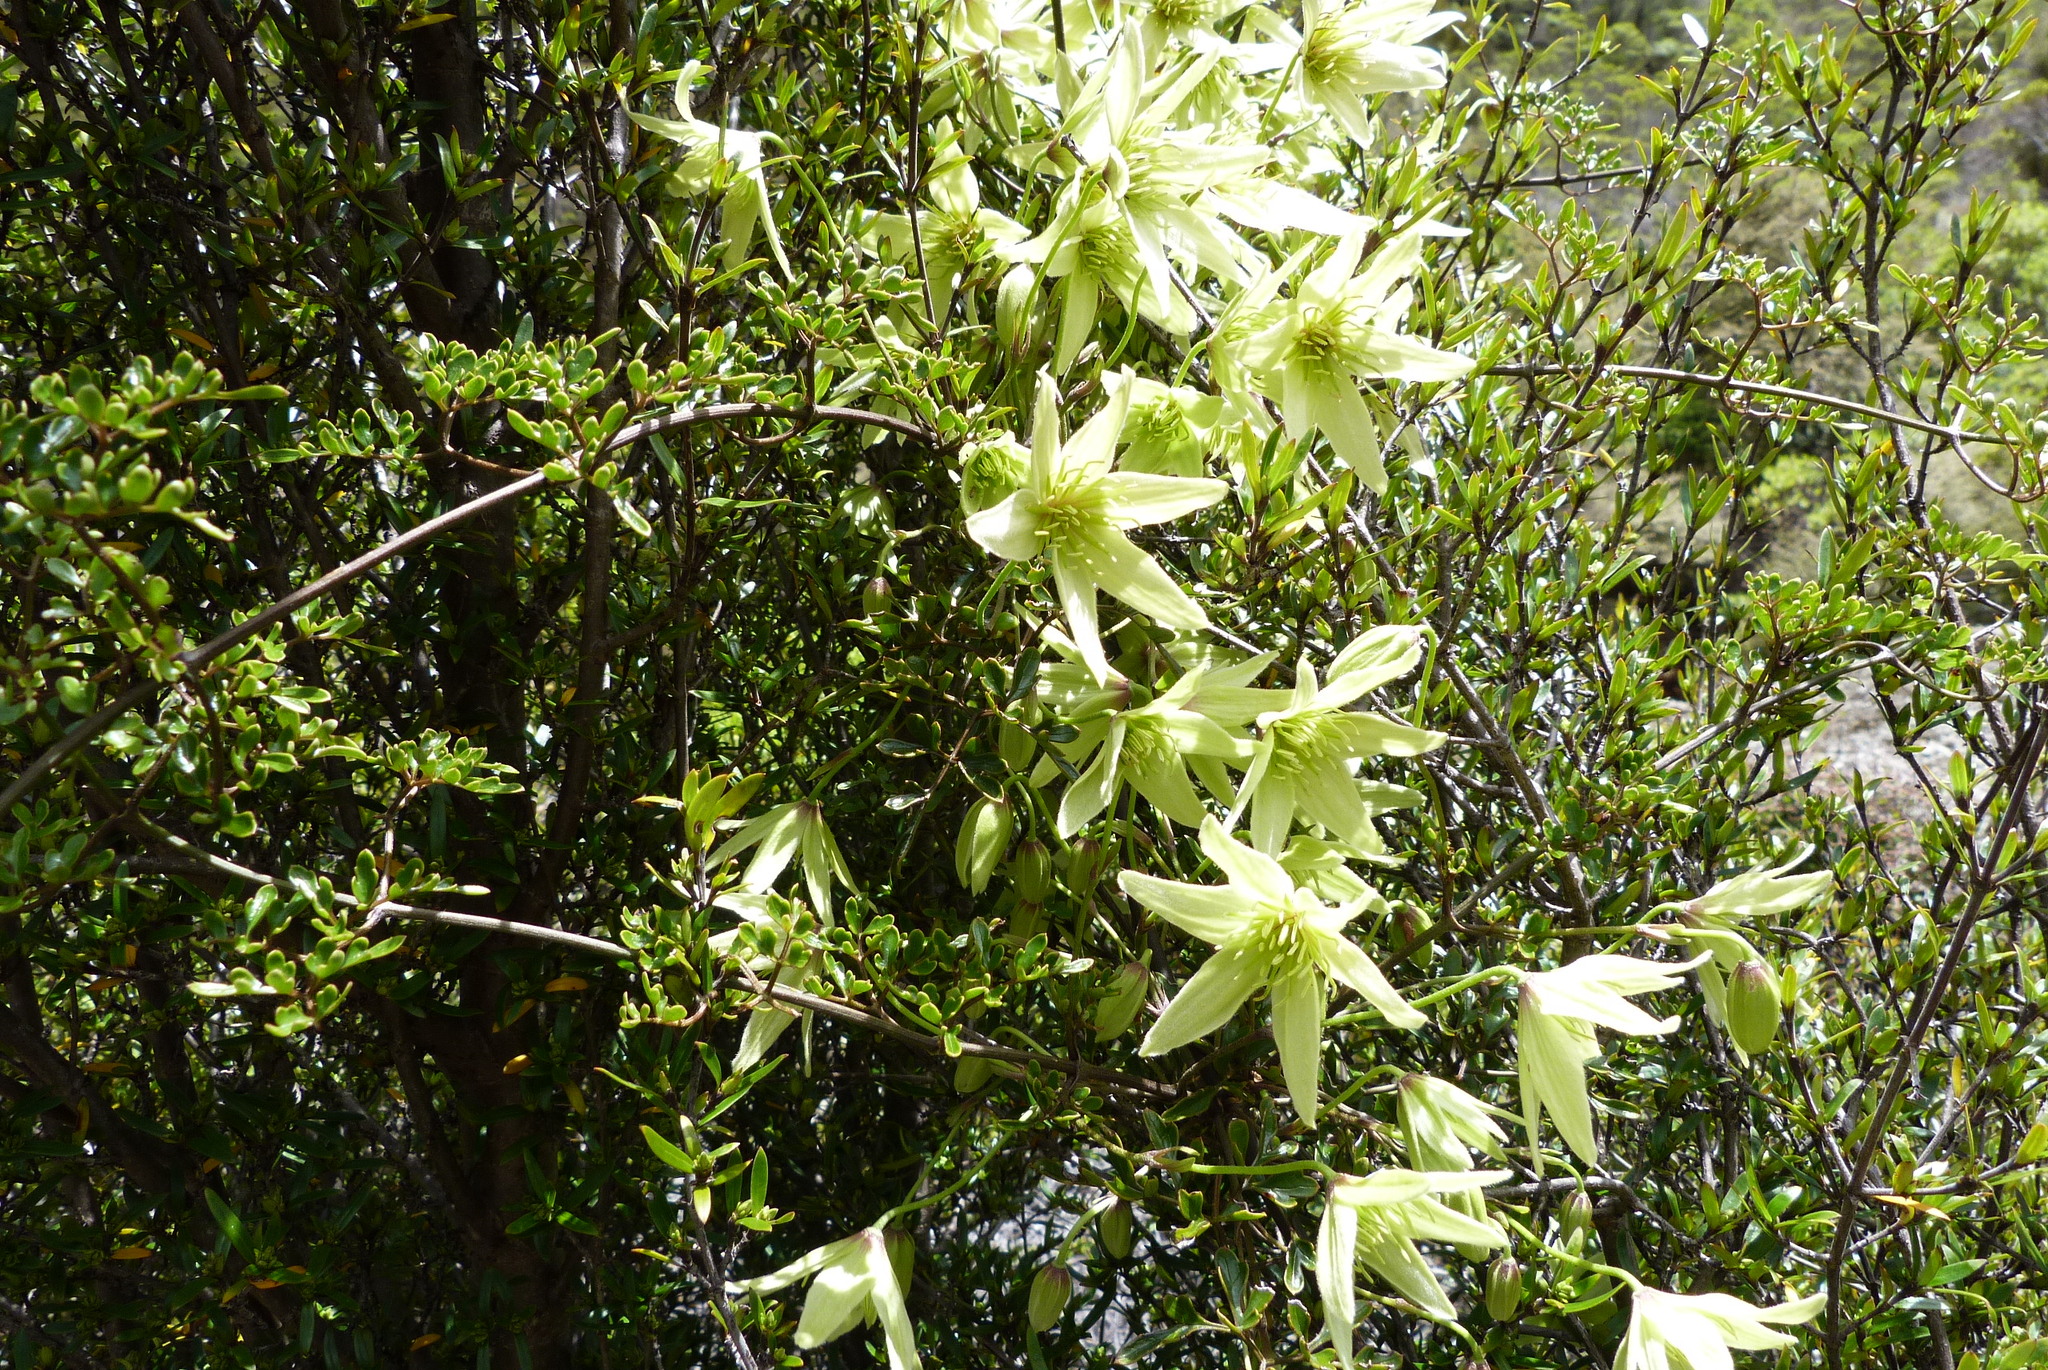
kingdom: Plantae
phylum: Tracheophyta
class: Magnoliopsida
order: Ranunculales
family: Ranunculaceae
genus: Clematis
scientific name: Clematis forsteri
